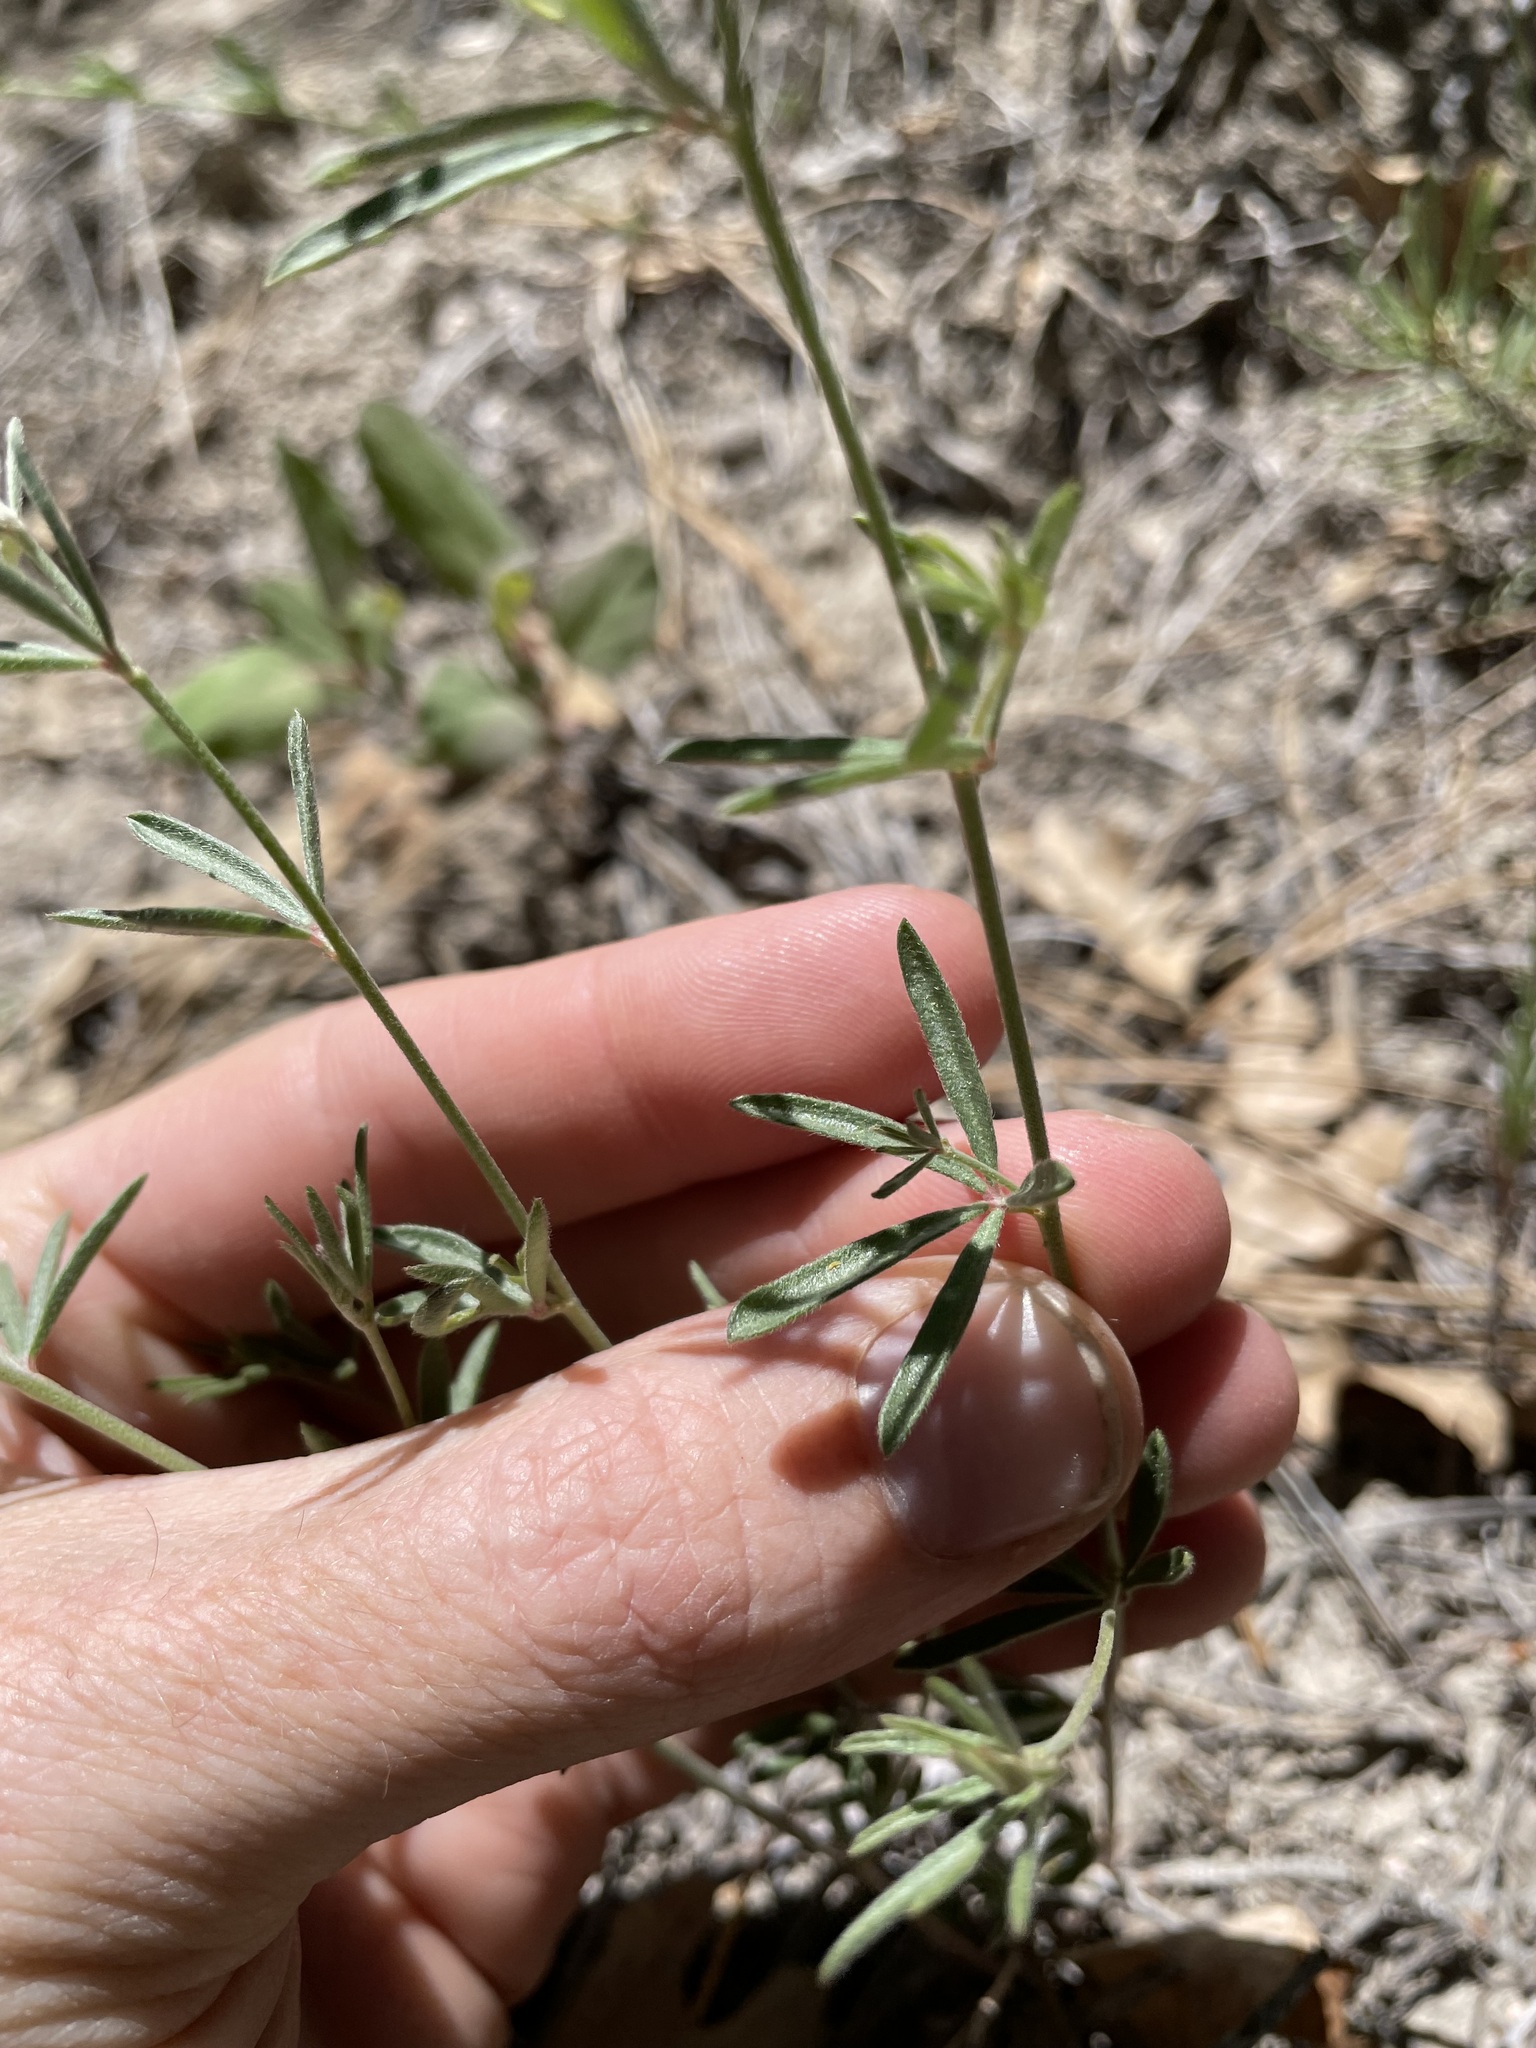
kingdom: Plantae
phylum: Tracheophyta
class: Magnoliopsida
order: Fabales
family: Fabaceae
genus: Acmispon
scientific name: Acmispon wrightii
